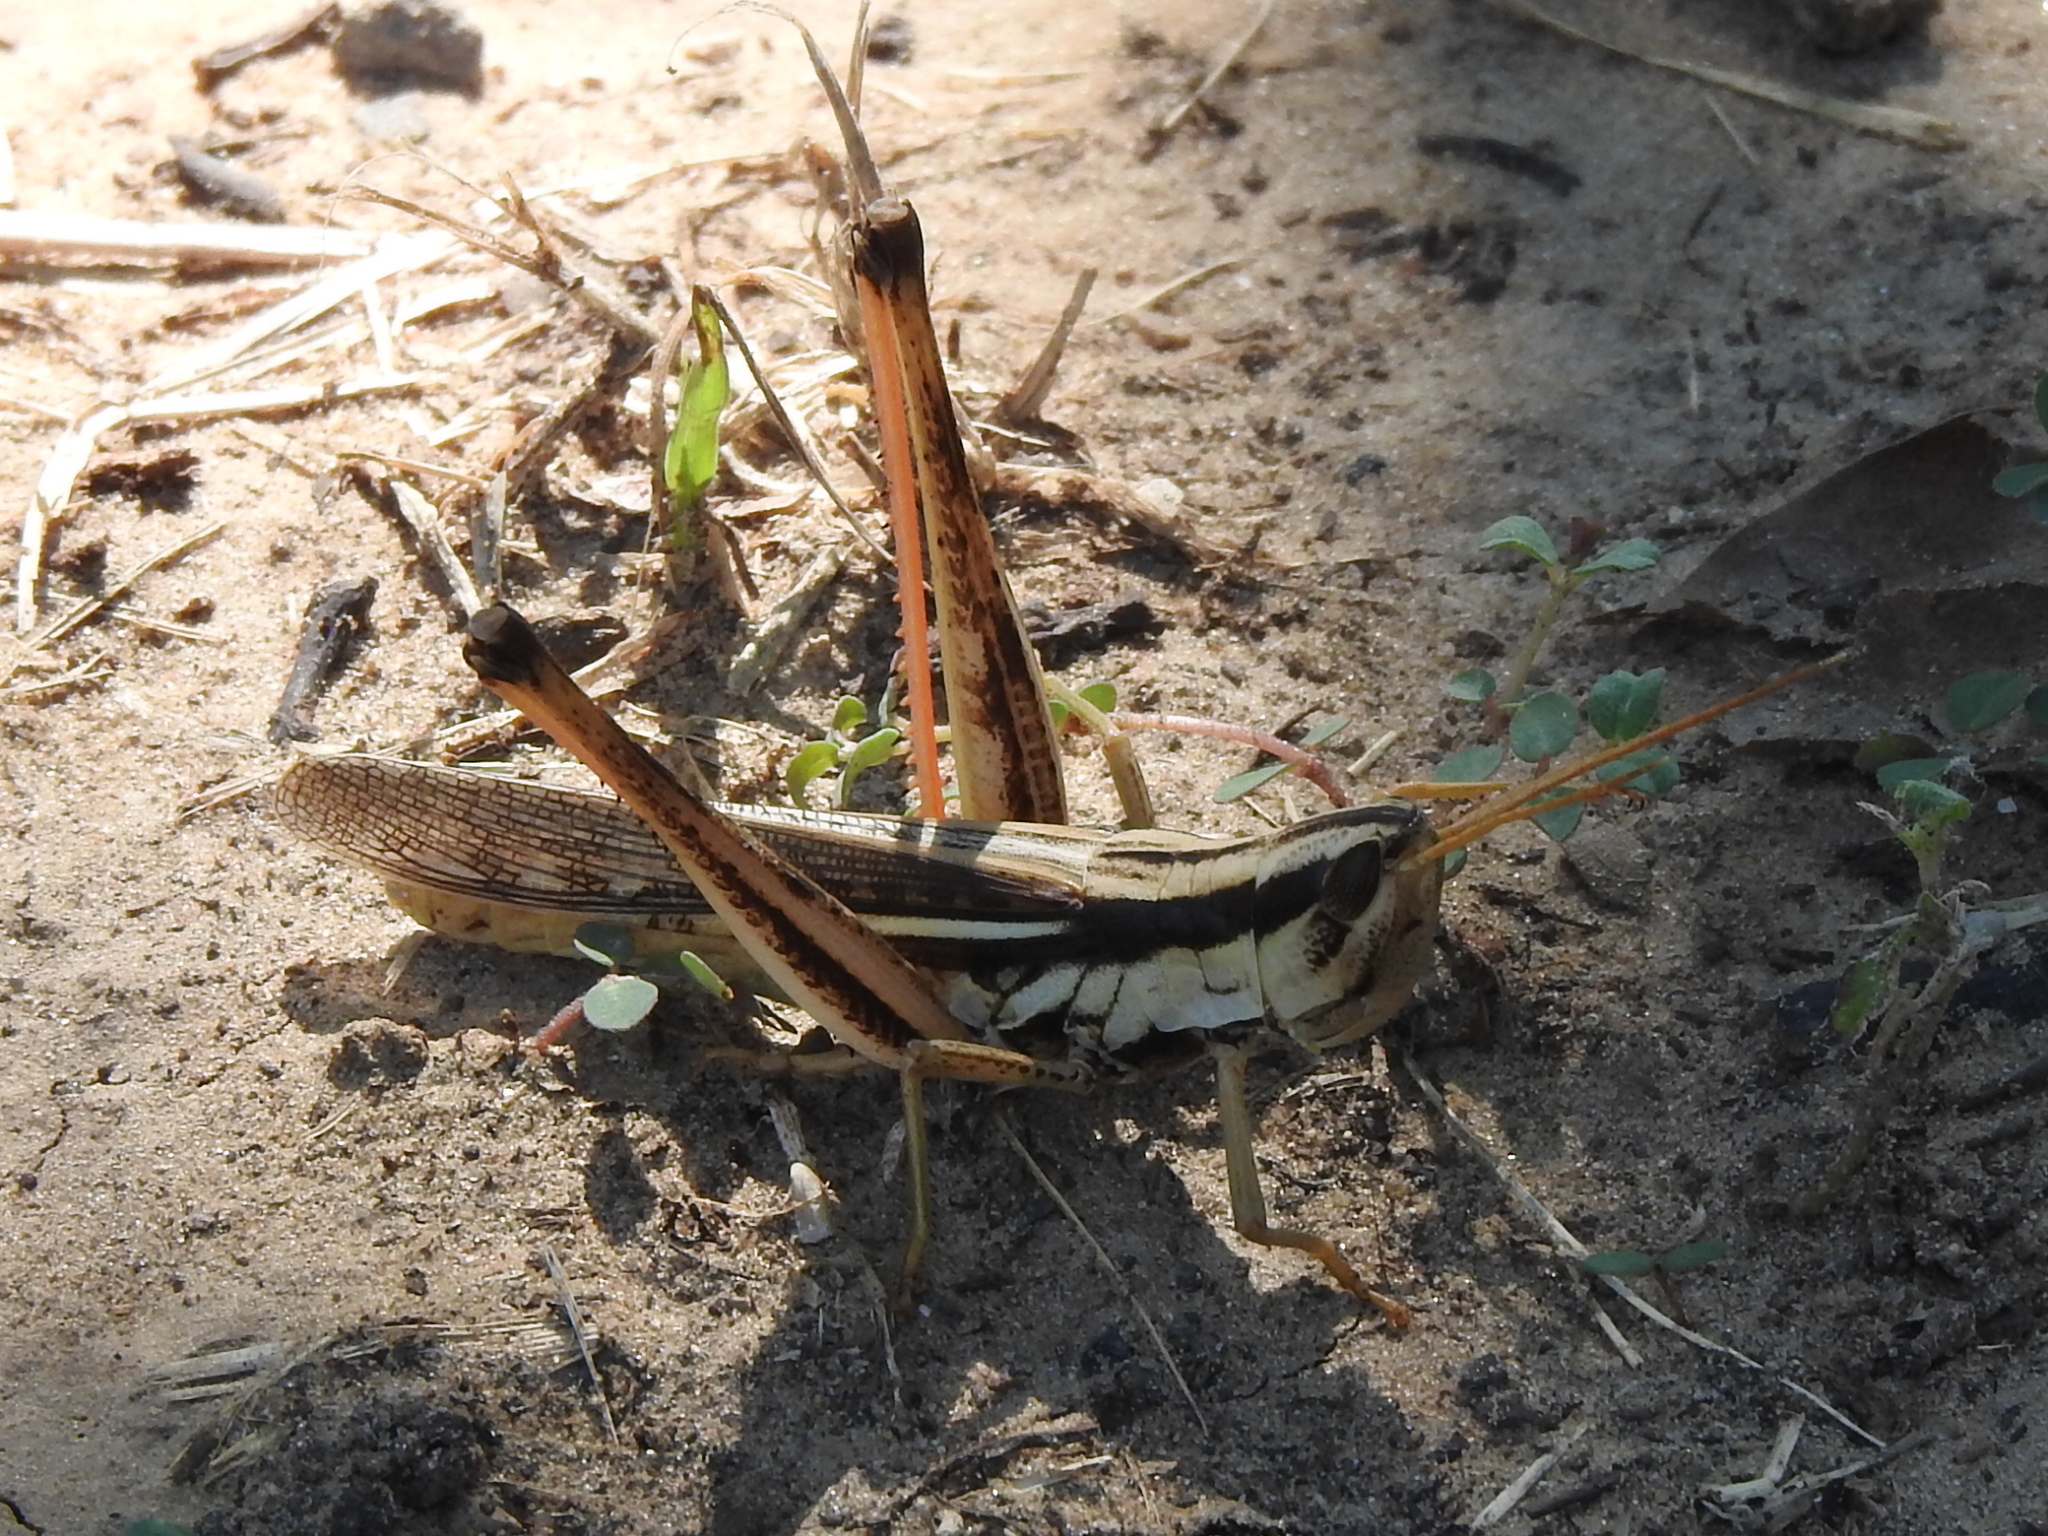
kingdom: Animalia
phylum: Arthropoda
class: Insecta
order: Orthoptera
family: Acrididae
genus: Mermiria
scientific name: Mermiria bivittata
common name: Two-striped mermiria grasshopper
